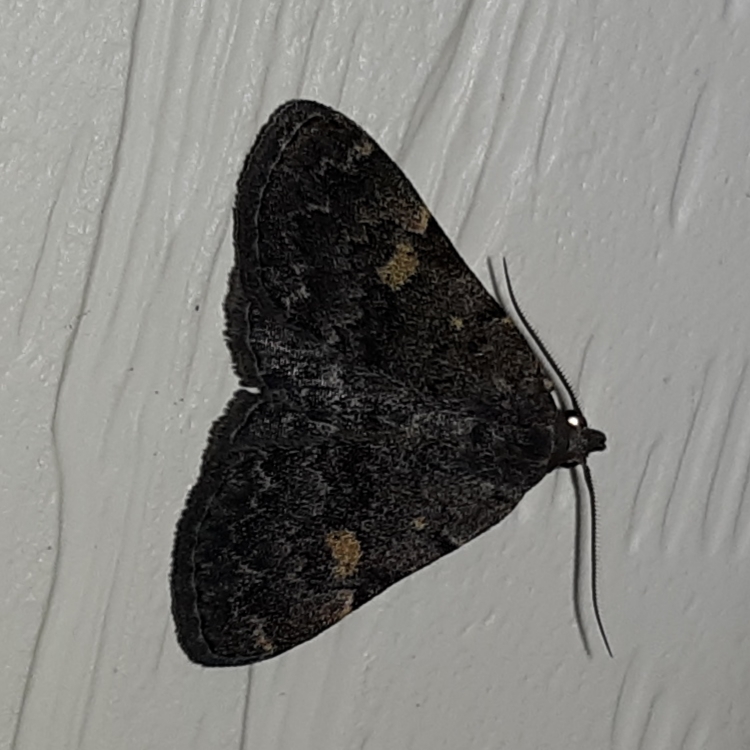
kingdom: Animalia
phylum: Arthropoda
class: Insecta
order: Lepidoptera
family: Erebidae
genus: Idia
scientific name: Idia aemula
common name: Common idia moth
